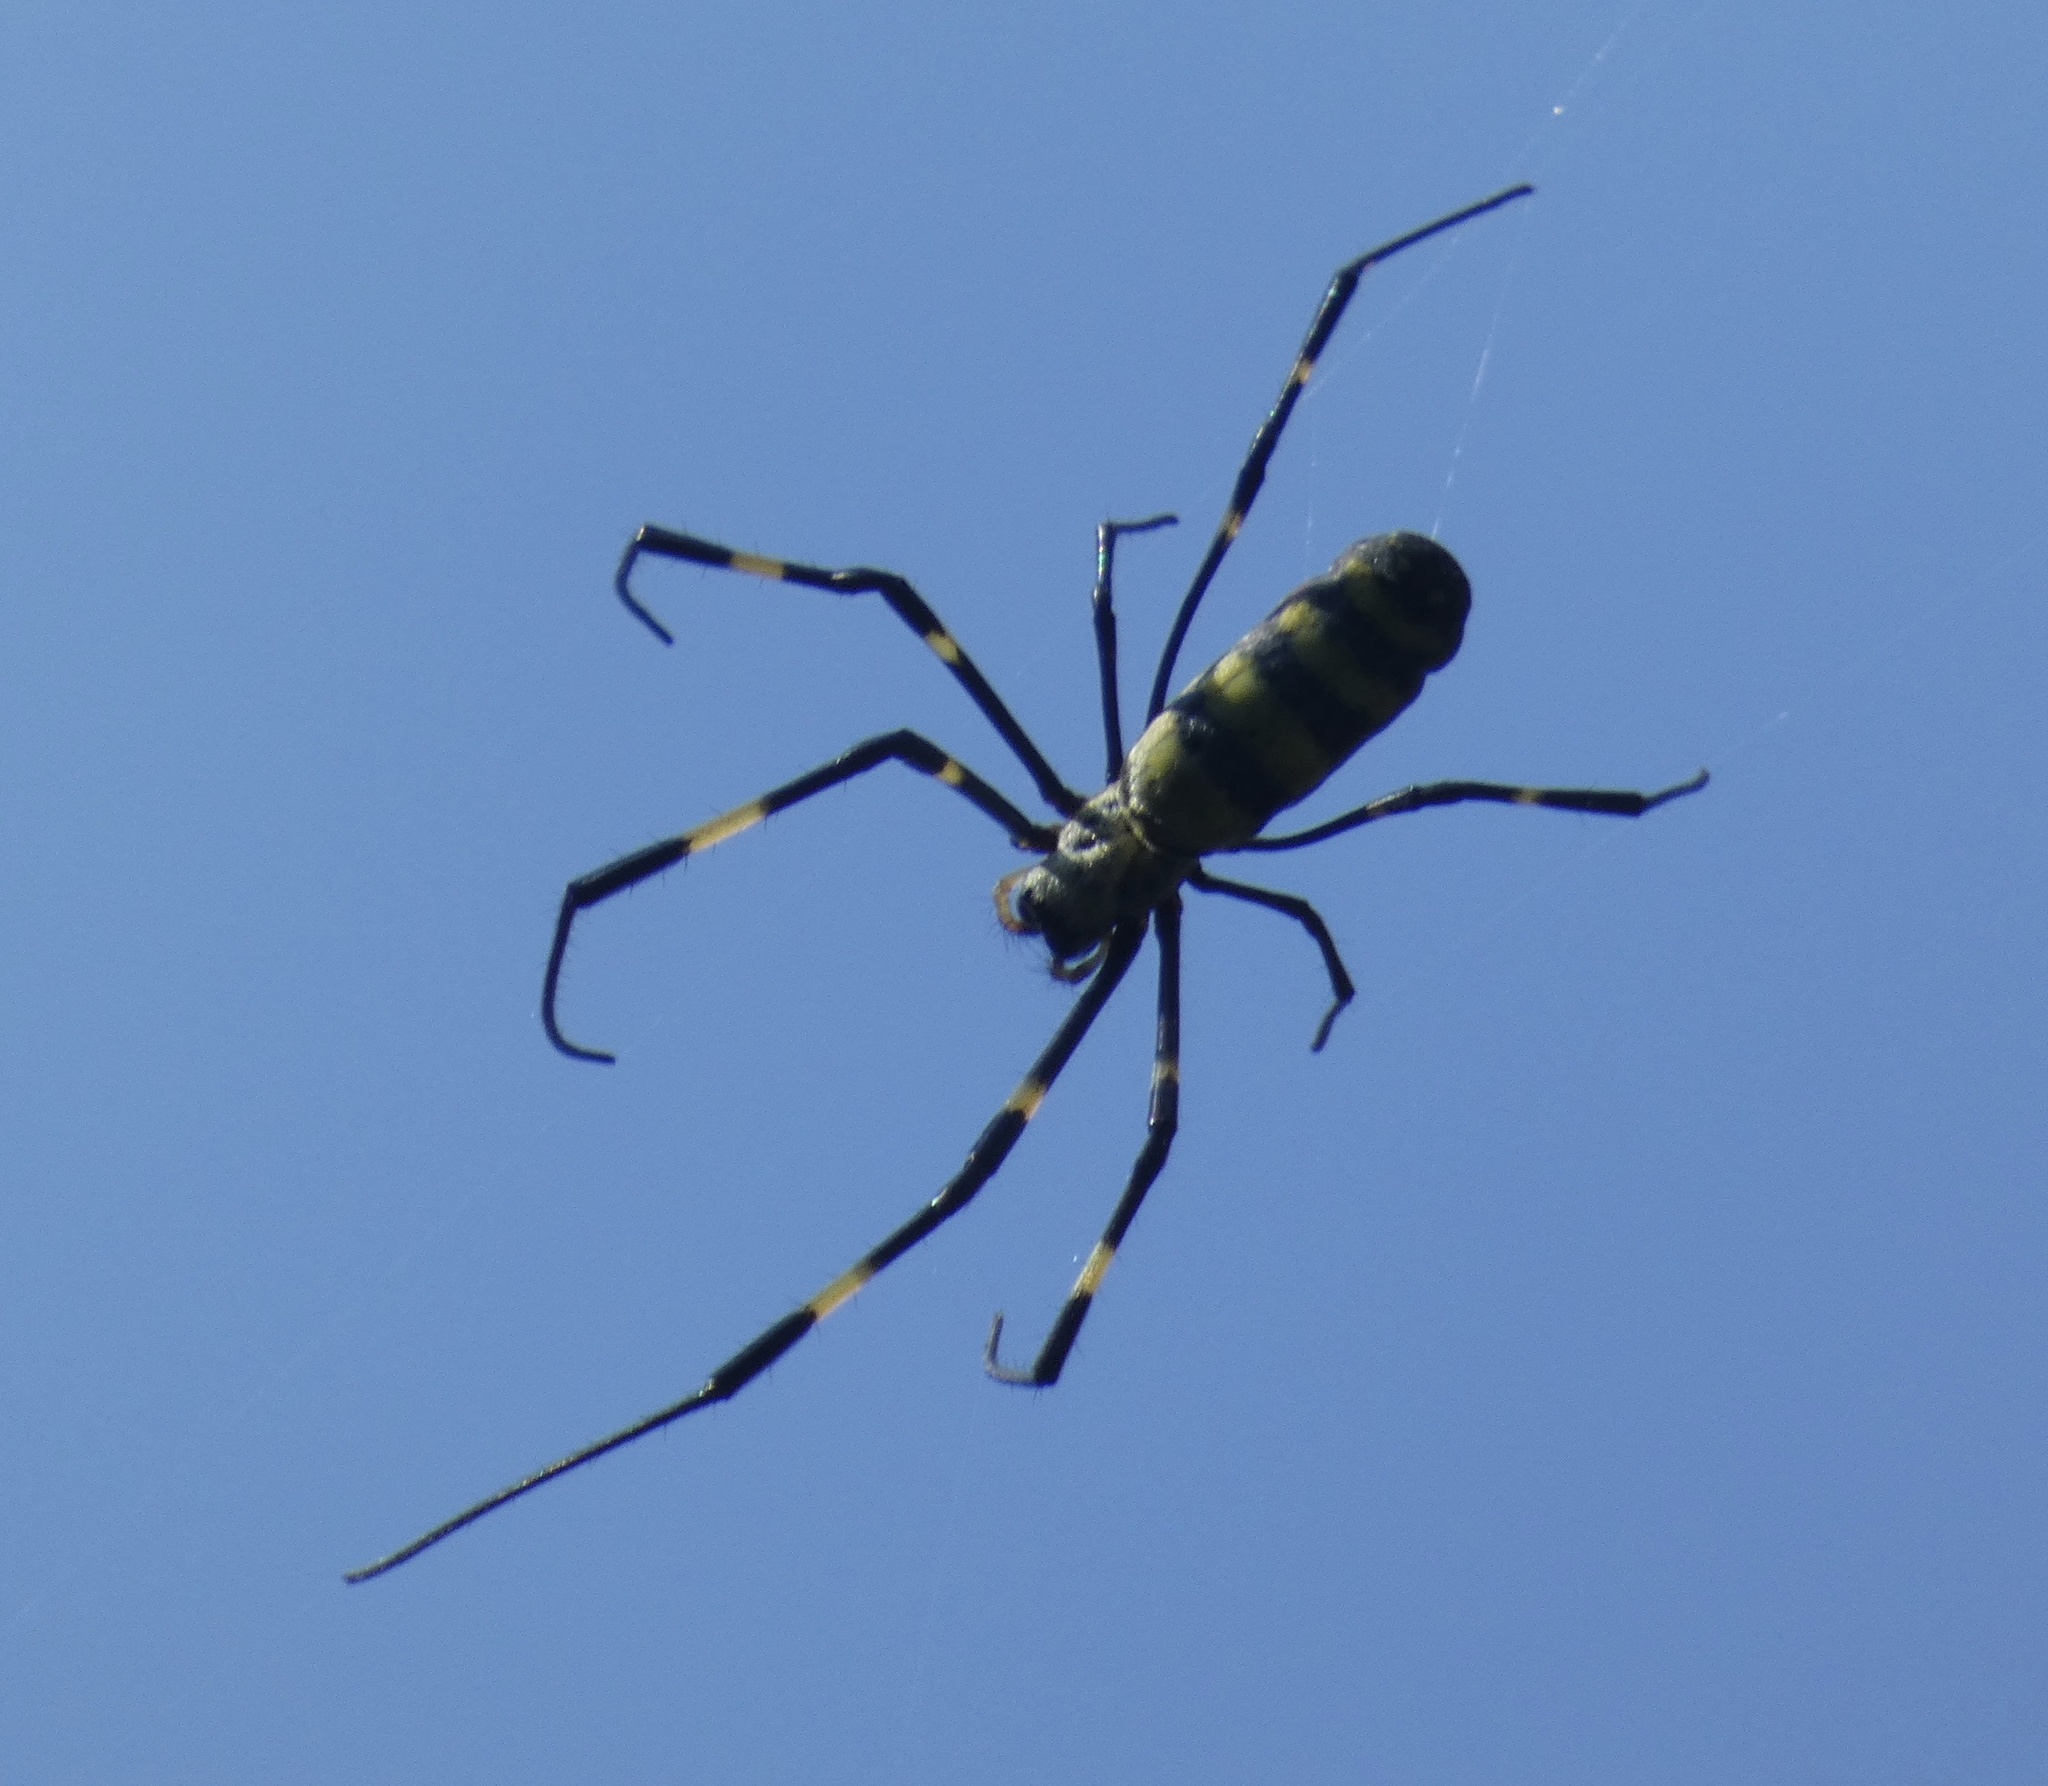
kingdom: Animalia
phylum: Arthropoda
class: Arachnida
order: Araneae
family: Araneidae
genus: Trichonephila
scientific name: Trichonephila clavata
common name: Jorō spider
